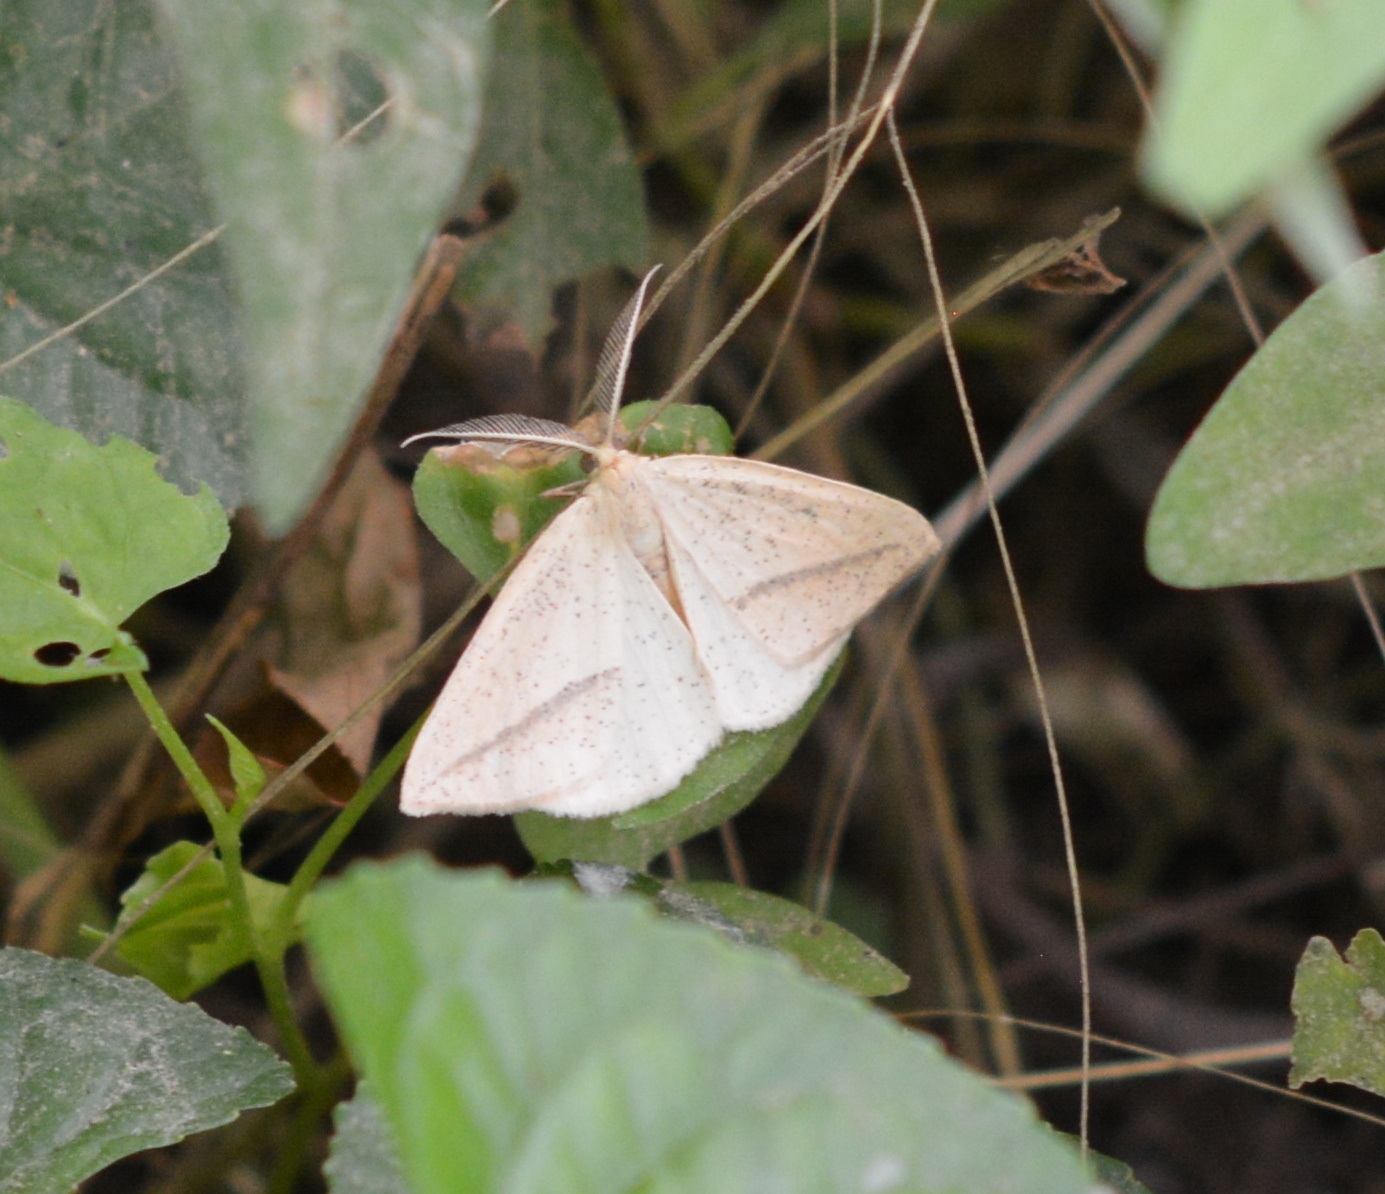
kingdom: Animalia
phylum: Arthropoda
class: Insecta
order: Lepidoptera
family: Geometridae
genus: Lychnosea
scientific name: Lychnosea intermicata
